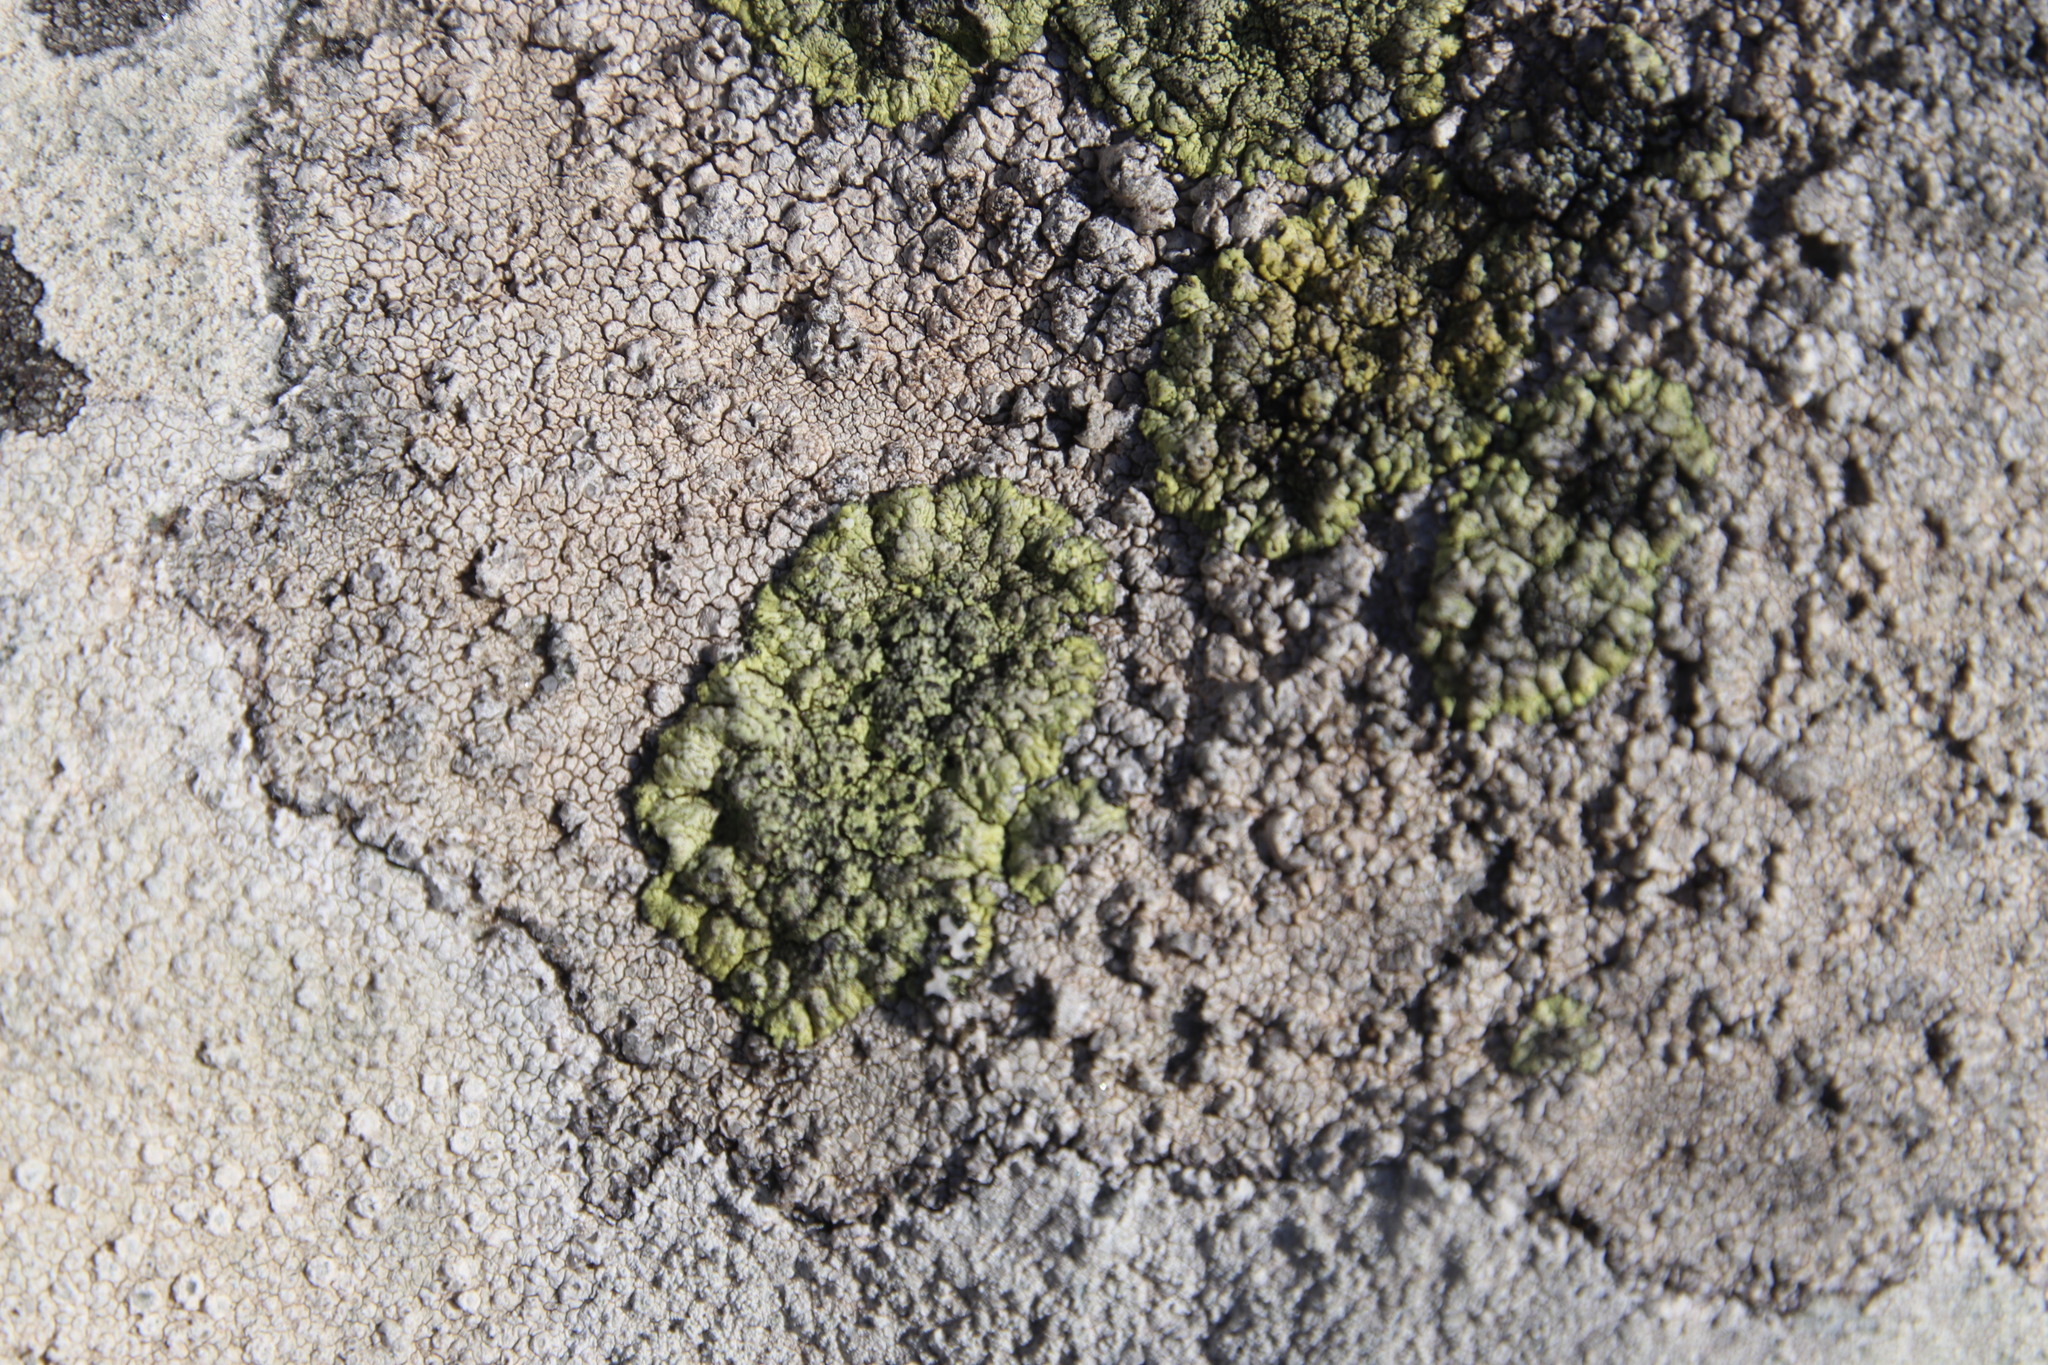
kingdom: Fungi
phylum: Ascomycota
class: Lecanoromycetes
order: Caliciales
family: Caliciaceae
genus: Diploicia
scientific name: Diploicia africana
